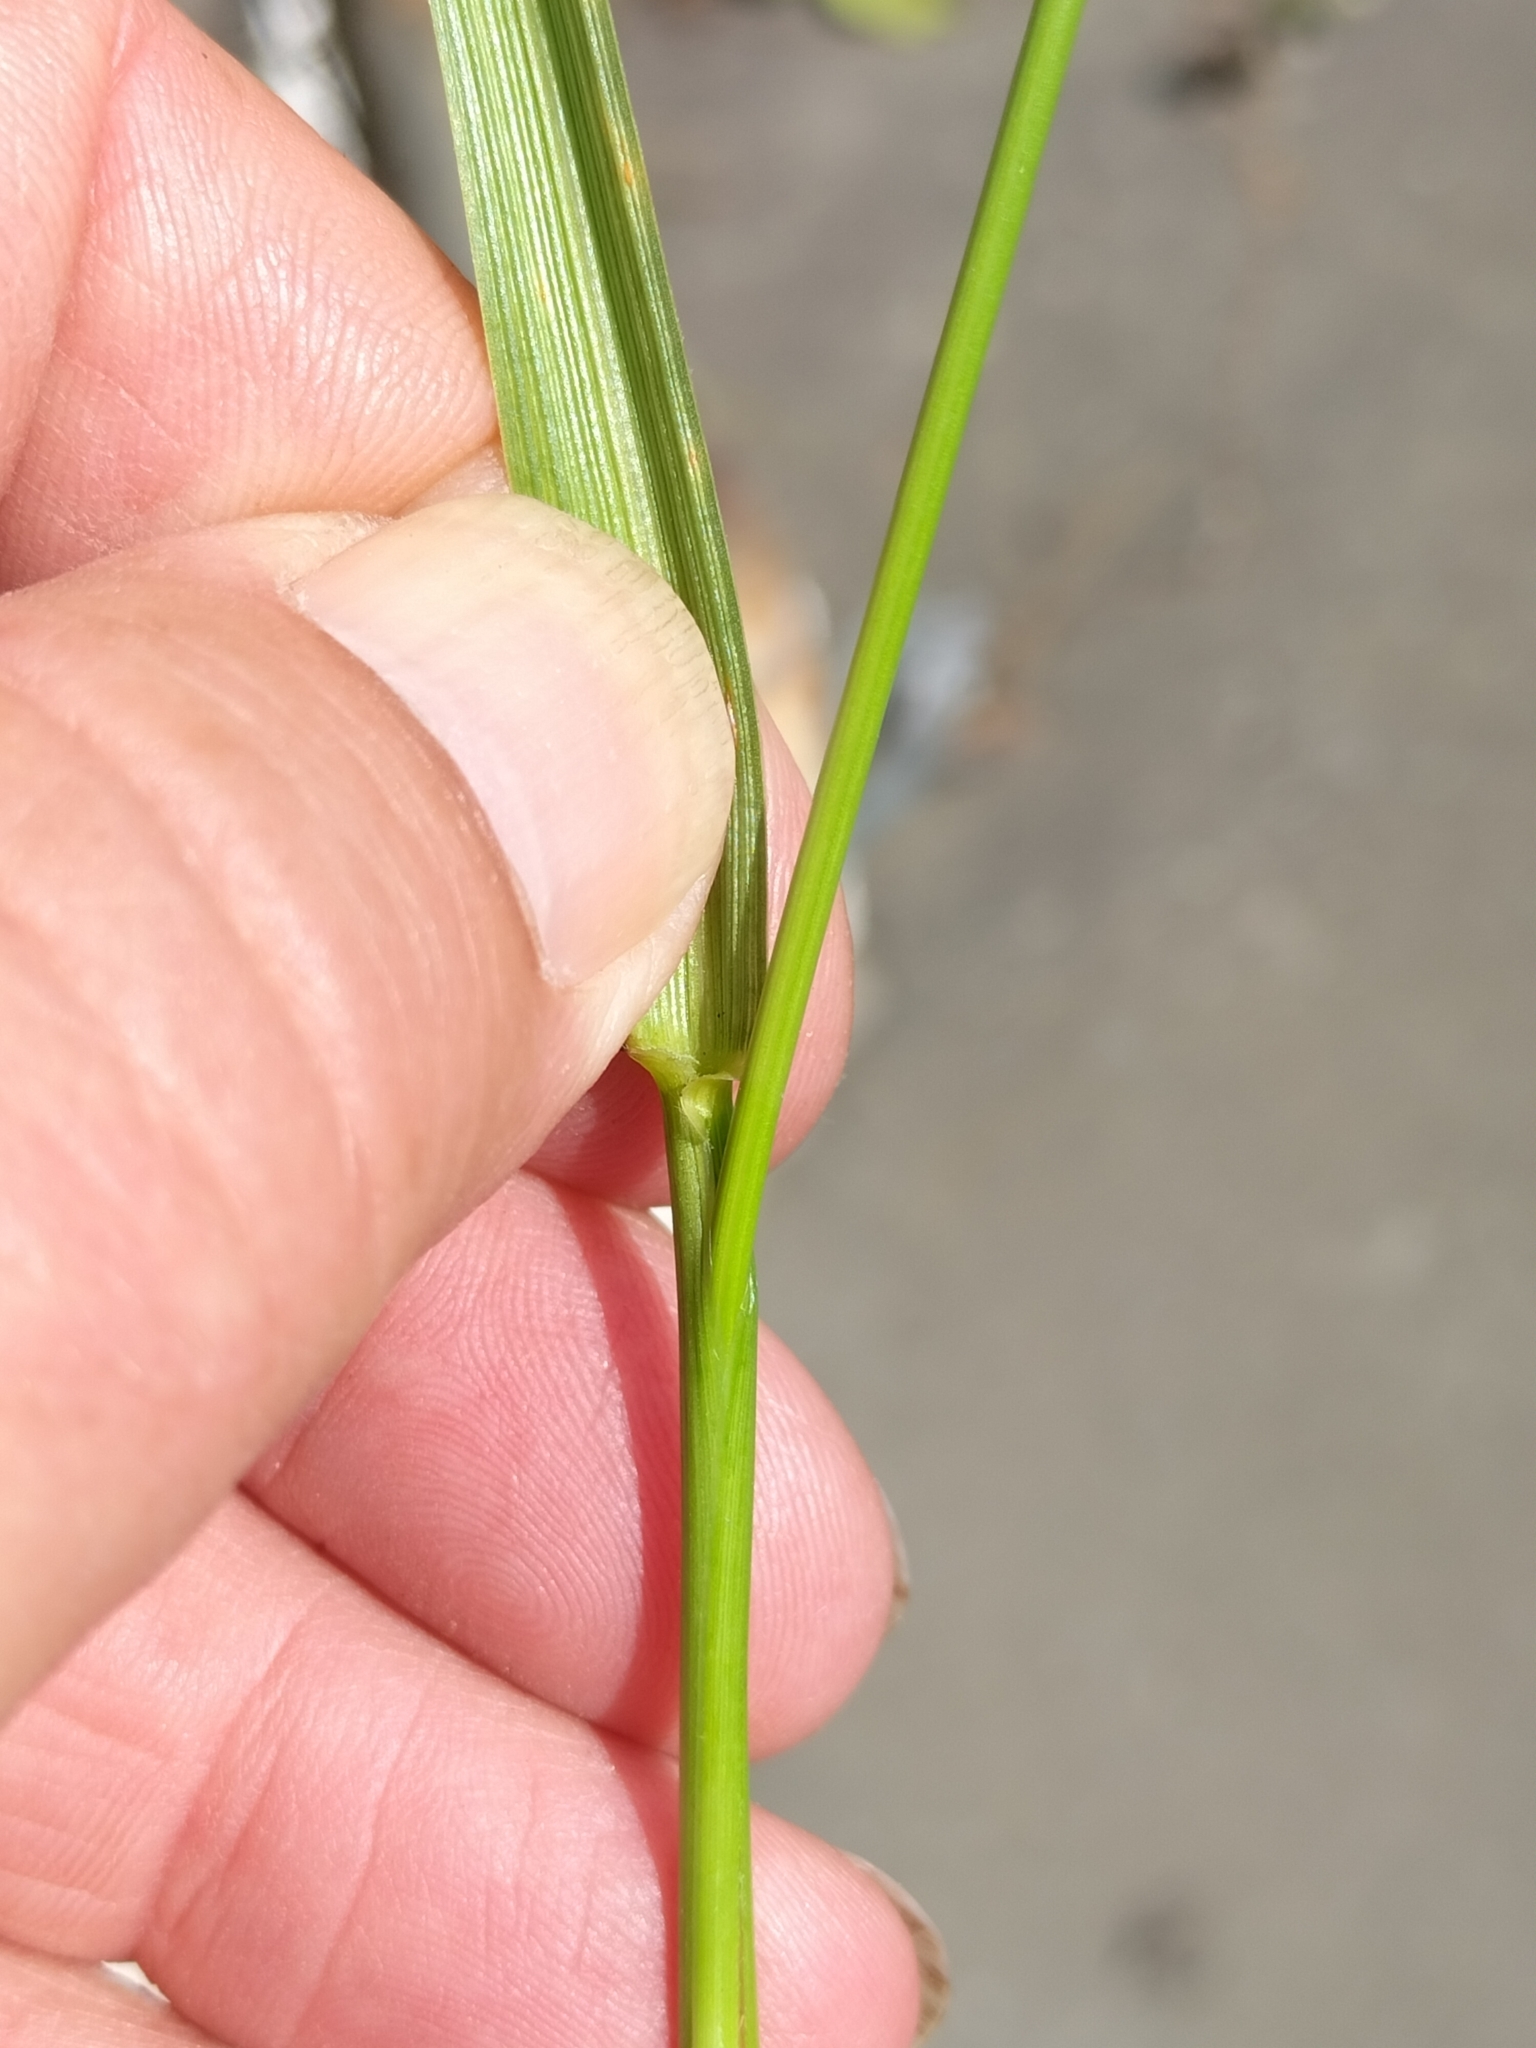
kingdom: Plantae
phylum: Tracheophyta
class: Liliopsida
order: Poales
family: Poaceae
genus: Lolium
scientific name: Lolium arundinaceum
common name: Reed fescue
